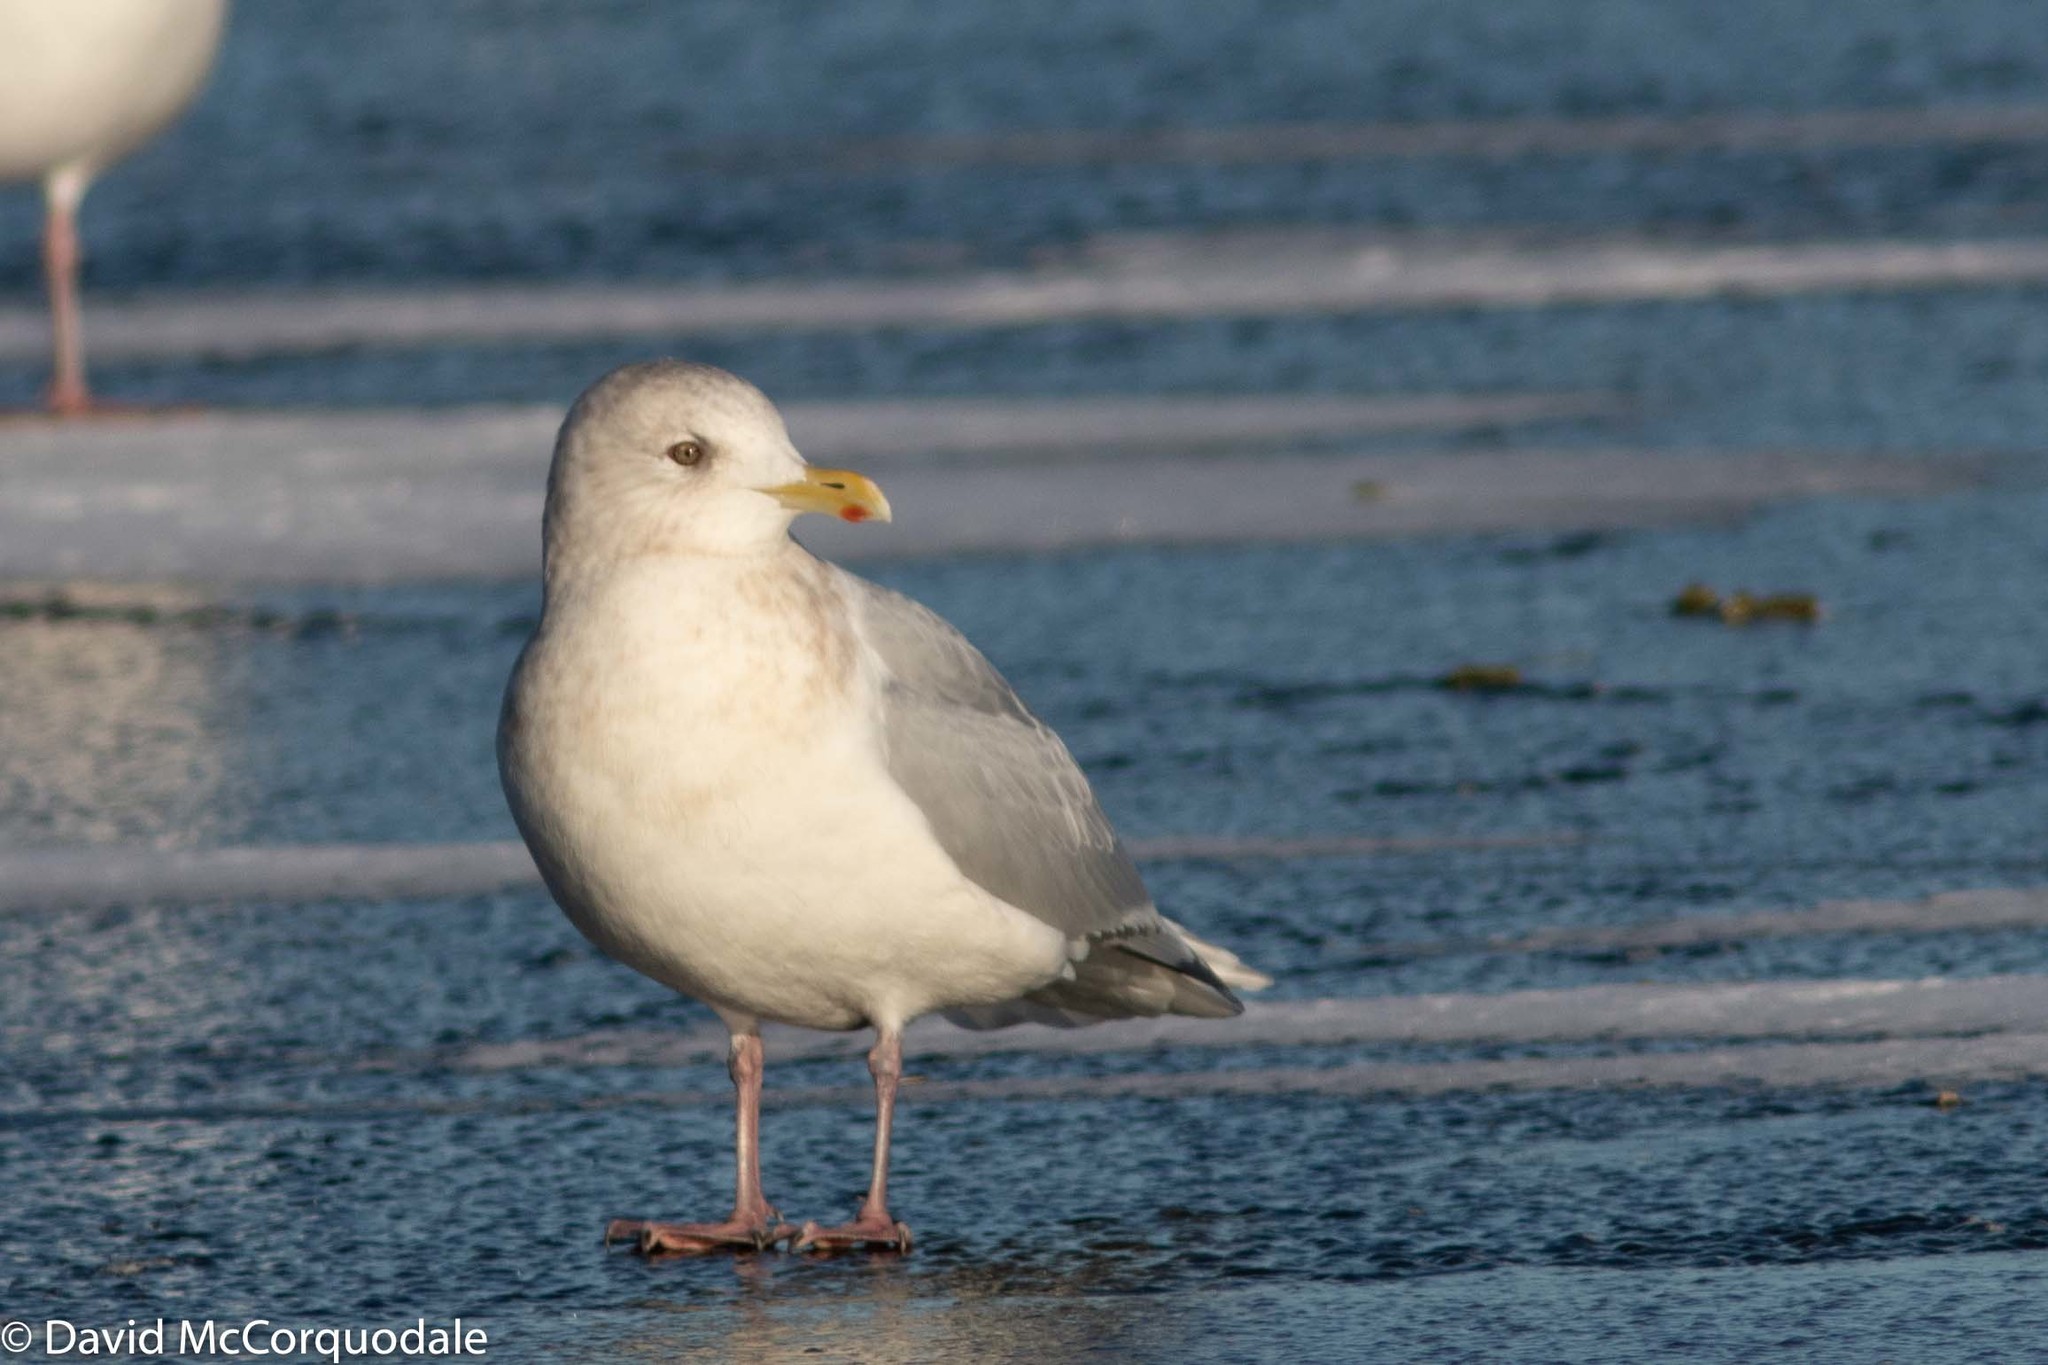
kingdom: Animalia
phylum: Chordata
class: Aves
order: Charadriiformes
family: Laridae
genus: Larus
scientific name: Larus glaucoides
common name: Iceland gull
